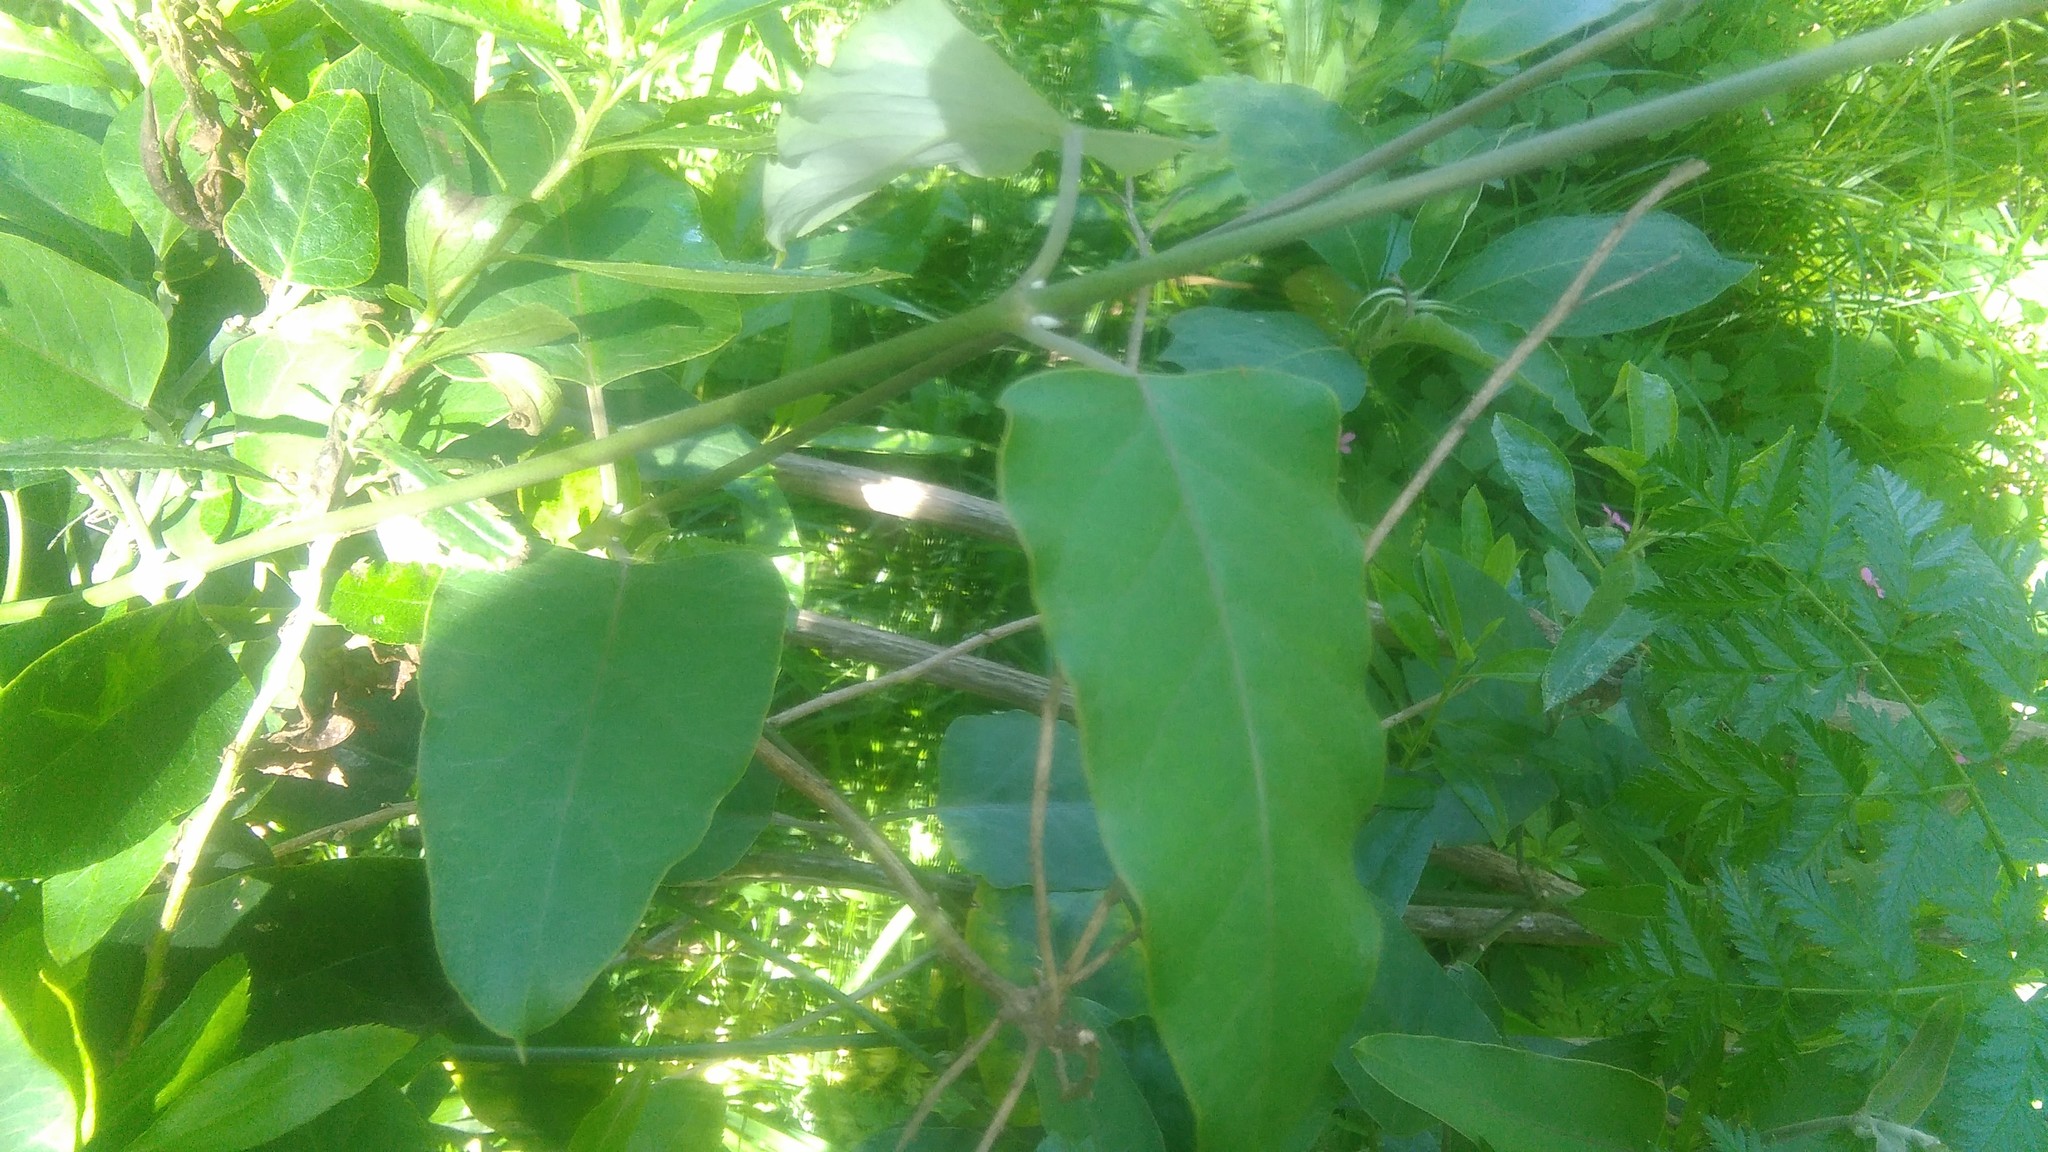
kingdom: Plantae
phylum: Tracheophyta
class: Magnoliopsida
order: Gentianales
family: Apocynaceae
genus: Araujia
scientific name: Araujia sericifera
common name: White bladderflower
